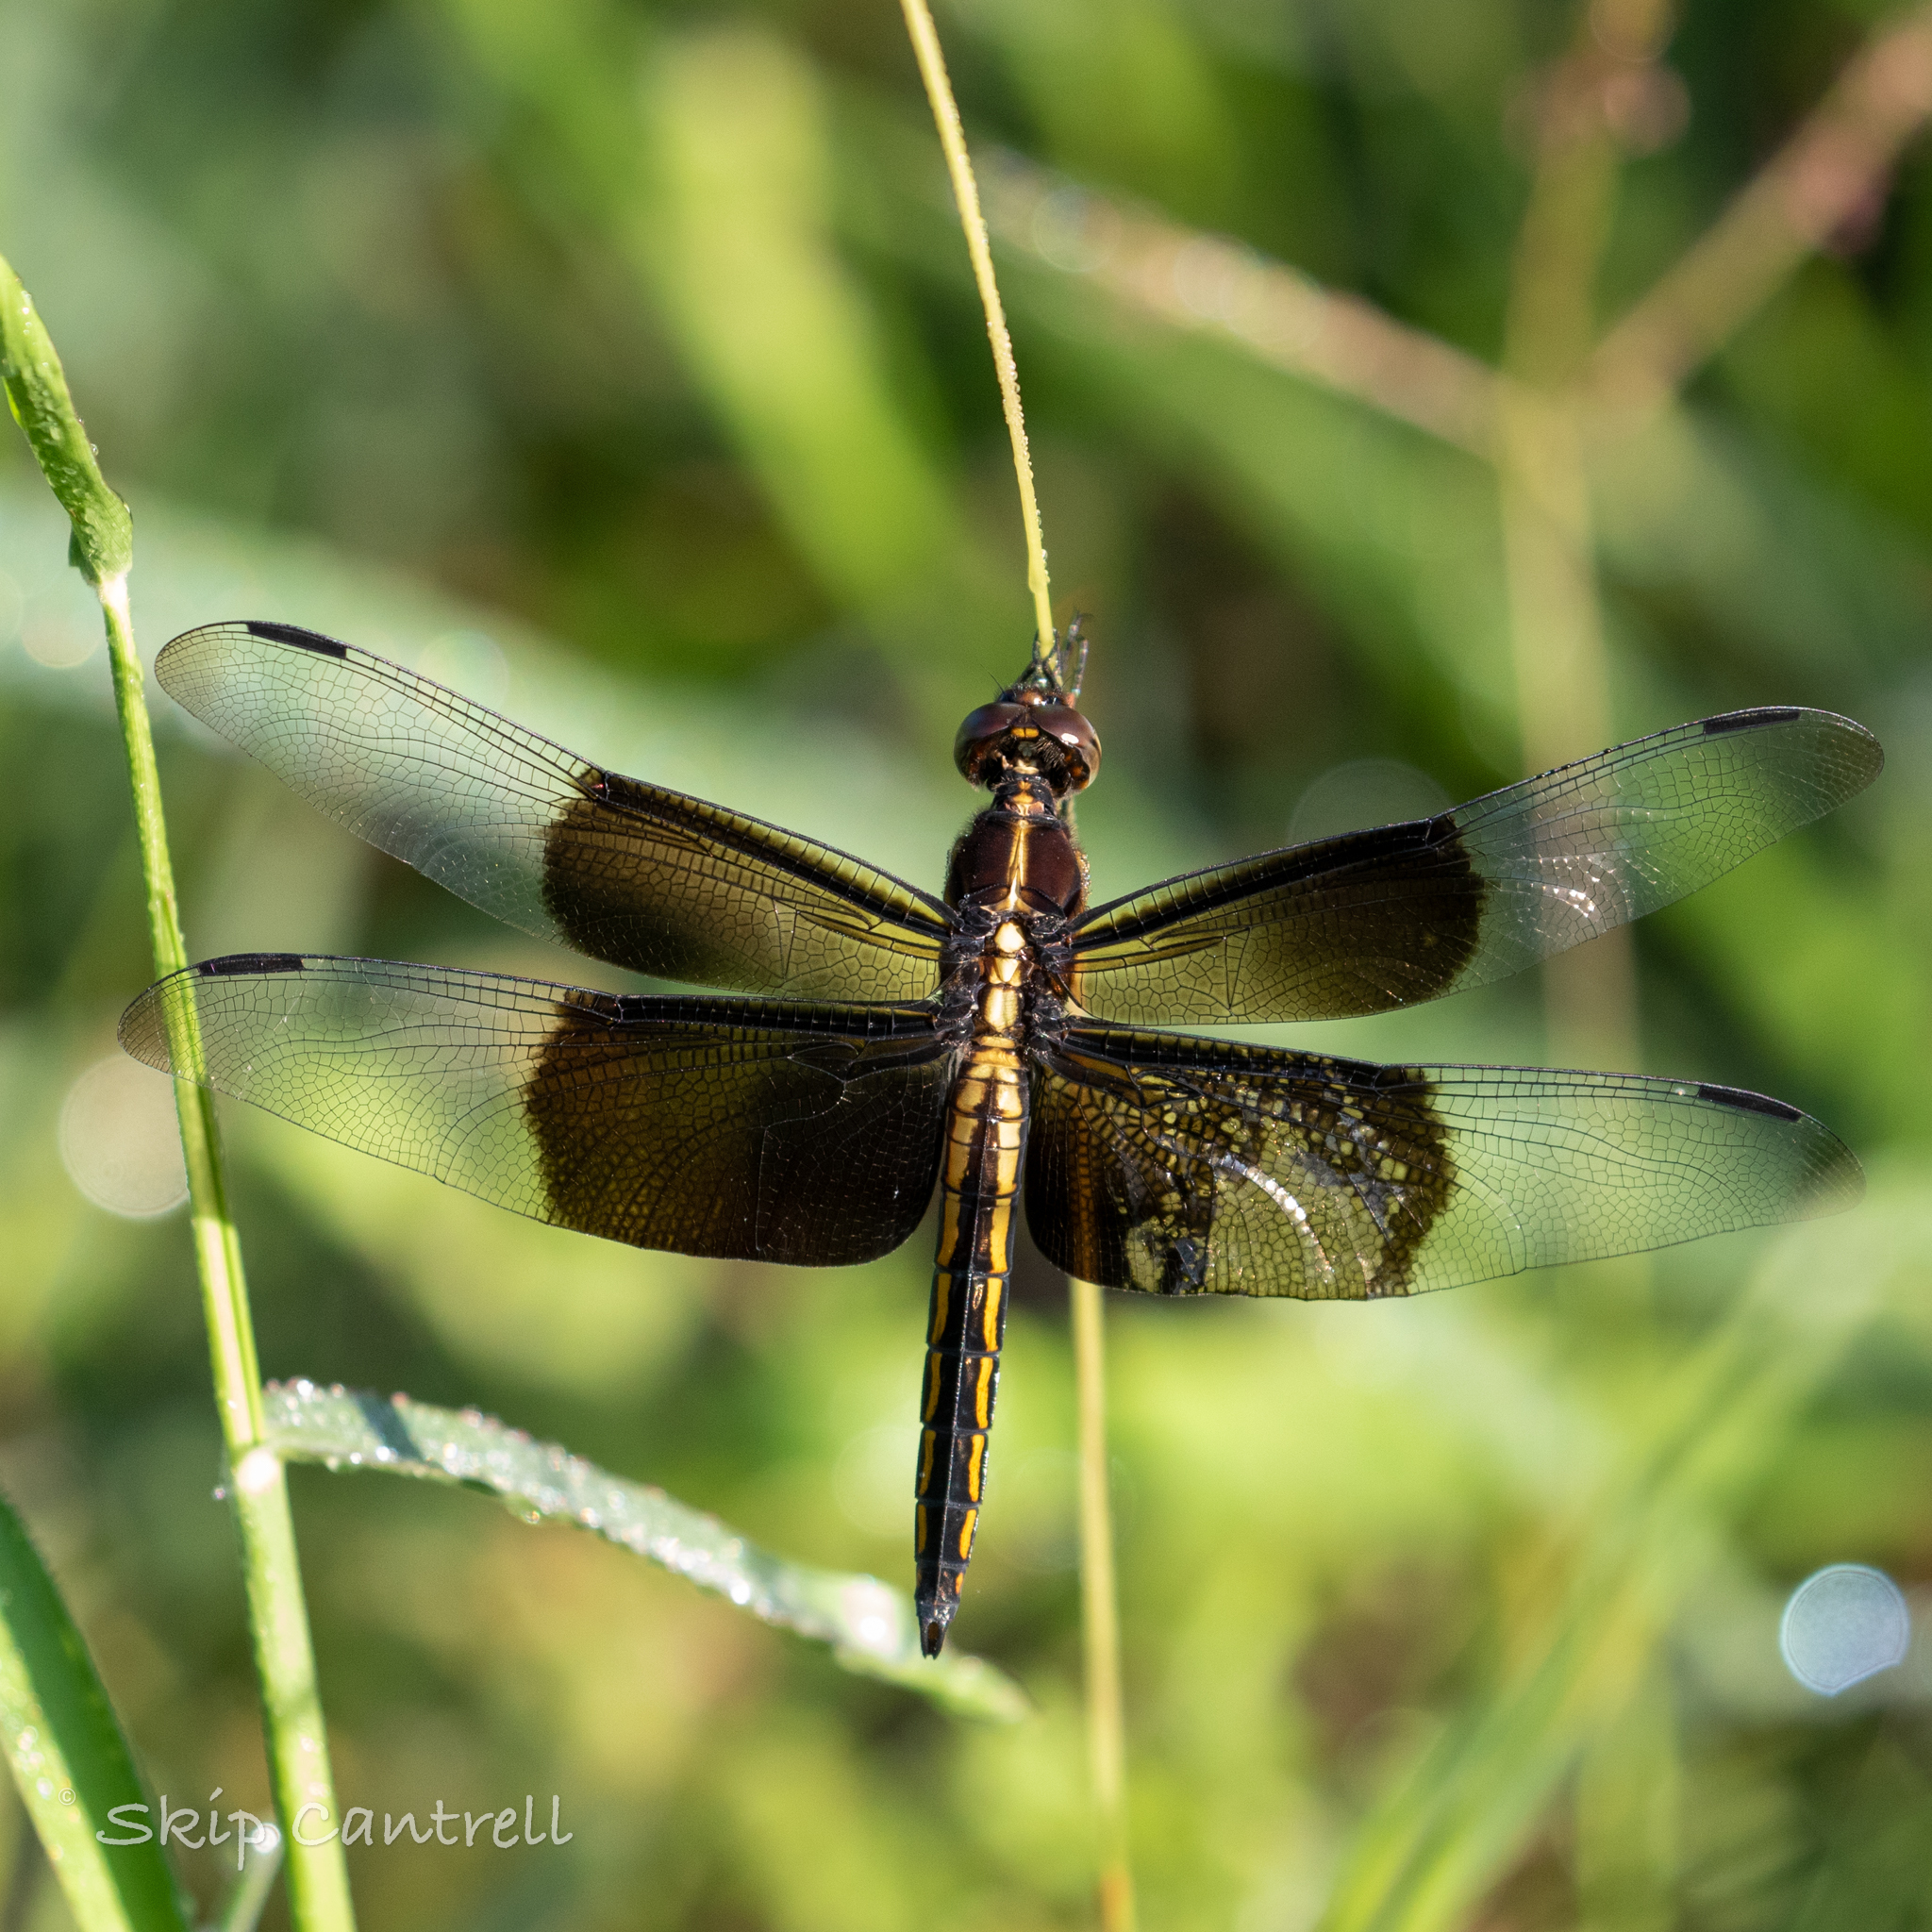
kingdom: Animalia
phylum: Arthropoda
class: Insecta
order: Odonata
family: Libellulidae
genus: Libellula
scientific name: Libellula luctuosa
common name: Widow skimmer
